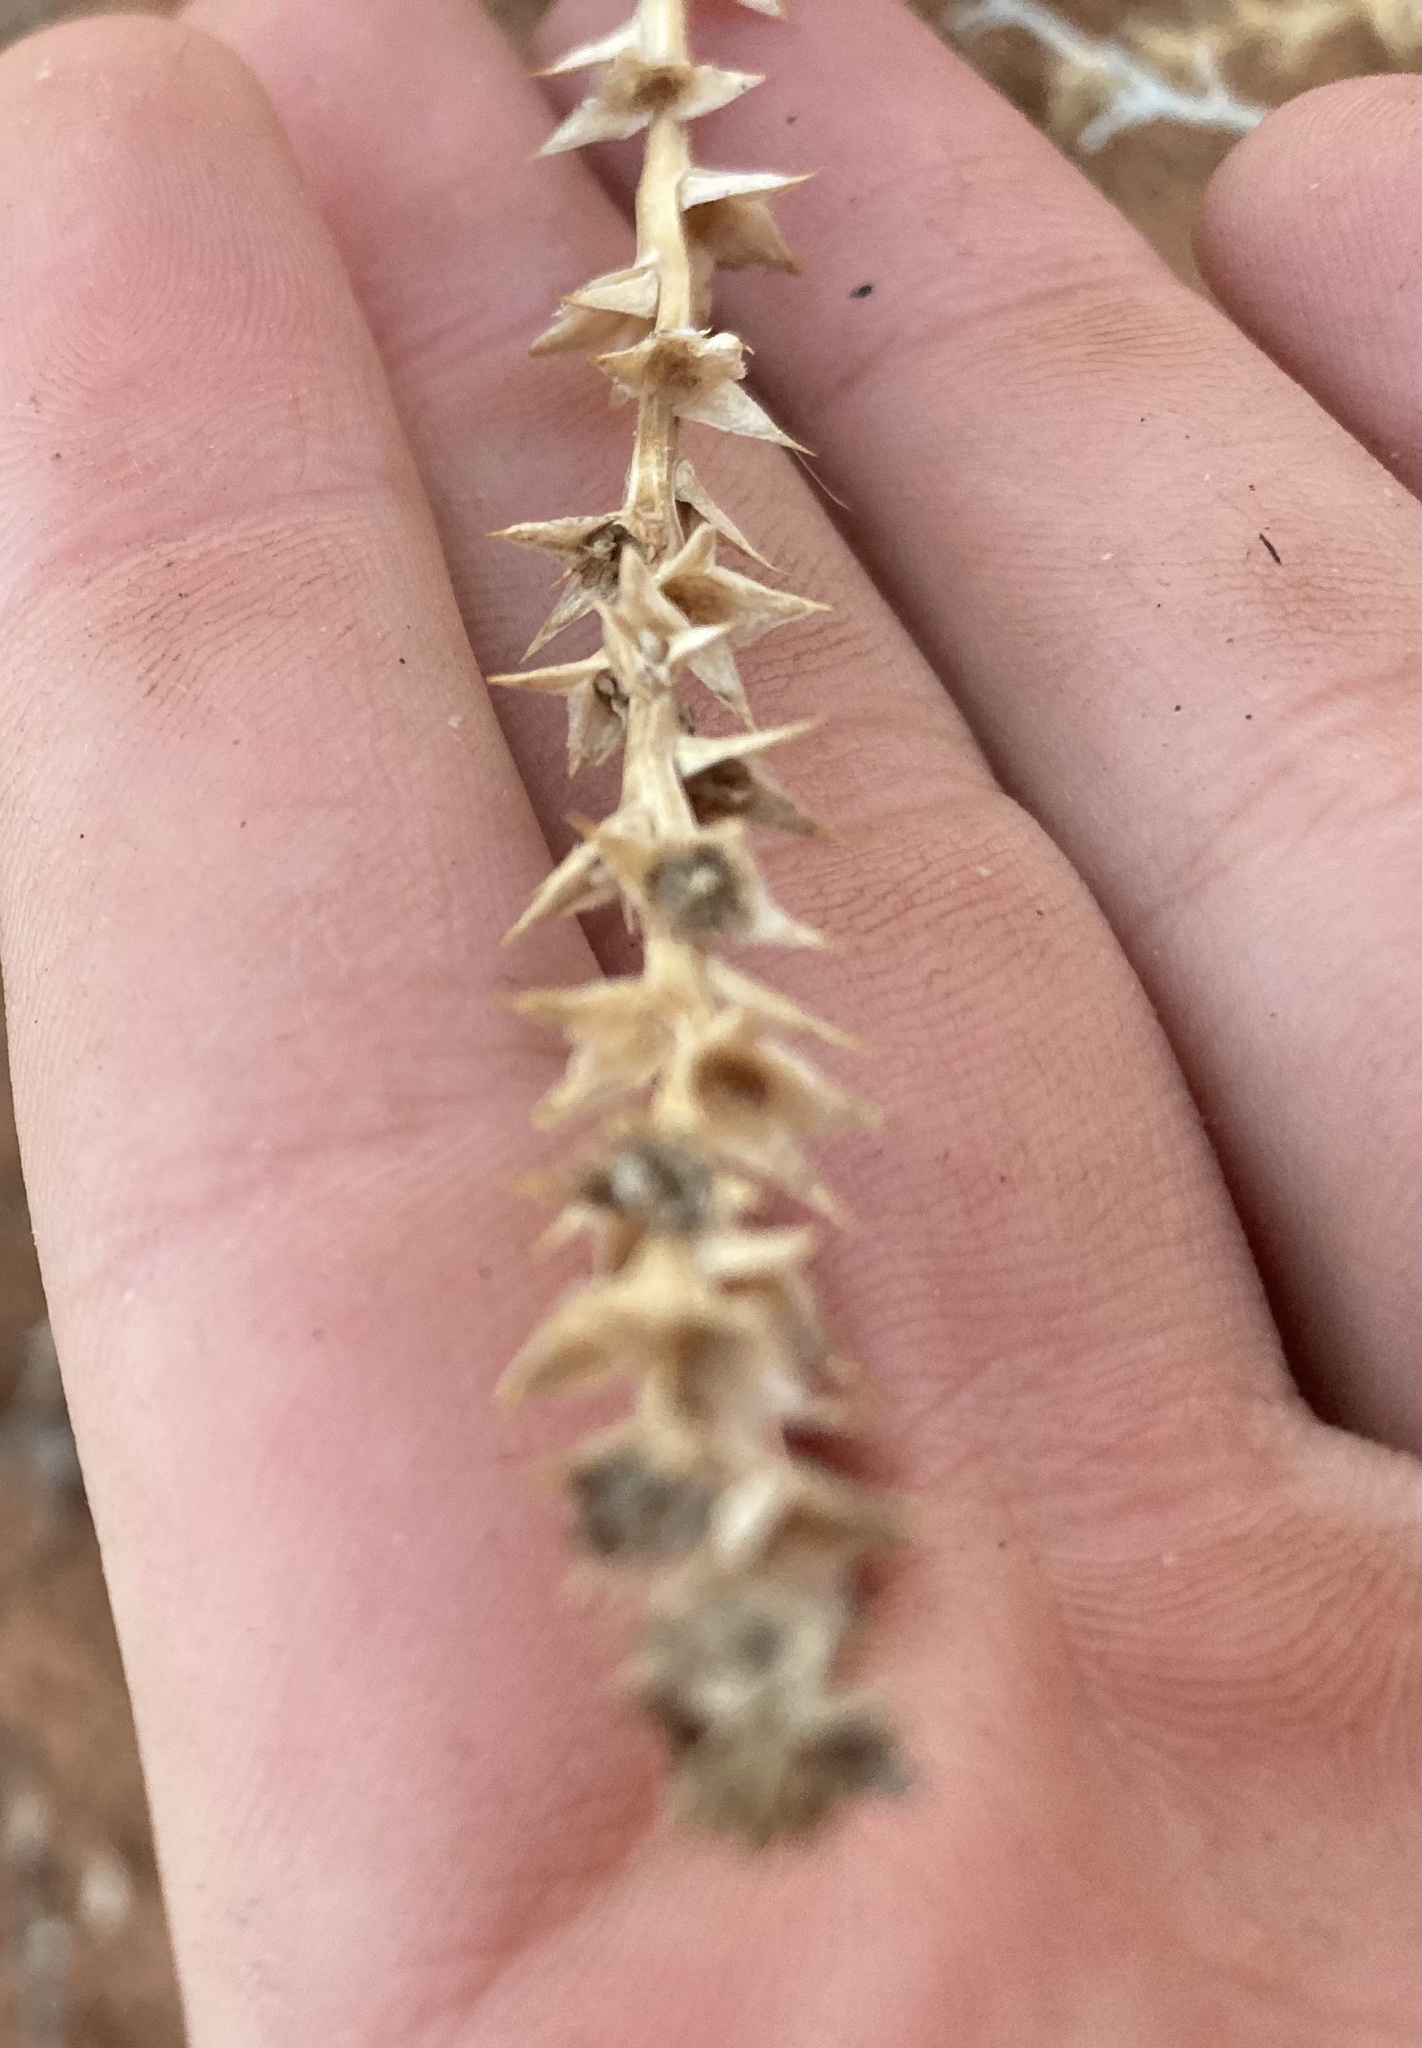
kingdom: Plantae
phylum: Tracheophyta
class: Magnoliopsida
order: Caryophyllales
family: Amaranthaceae
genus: Salsola
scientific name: Salsola tragus
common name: Prickly russian thistle
